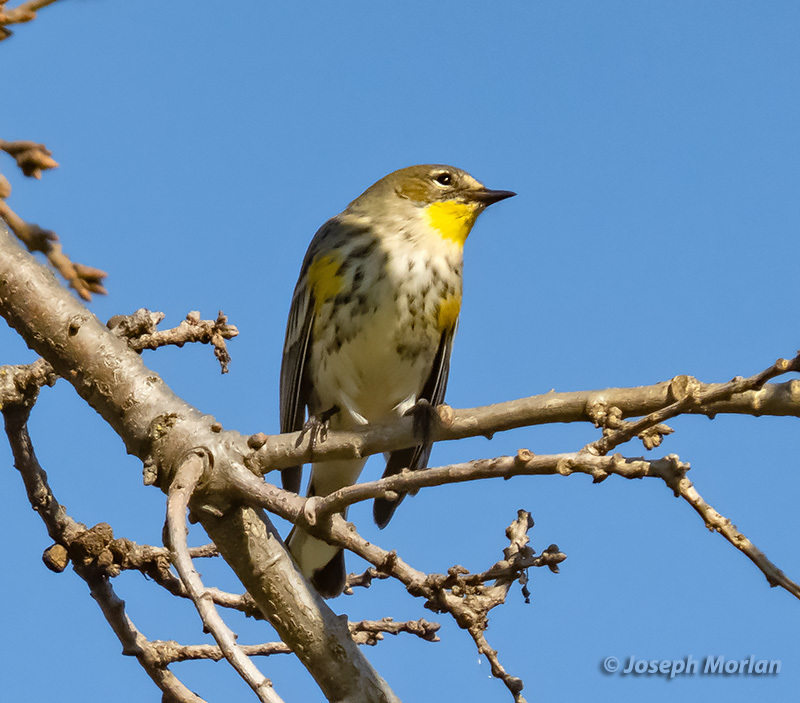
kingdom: Animalia
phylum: Chordata
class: Aves
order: Passeriformes
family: Parulidae
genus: Setophaga
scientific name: Setophaga coronata
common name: Myrtle warbler
